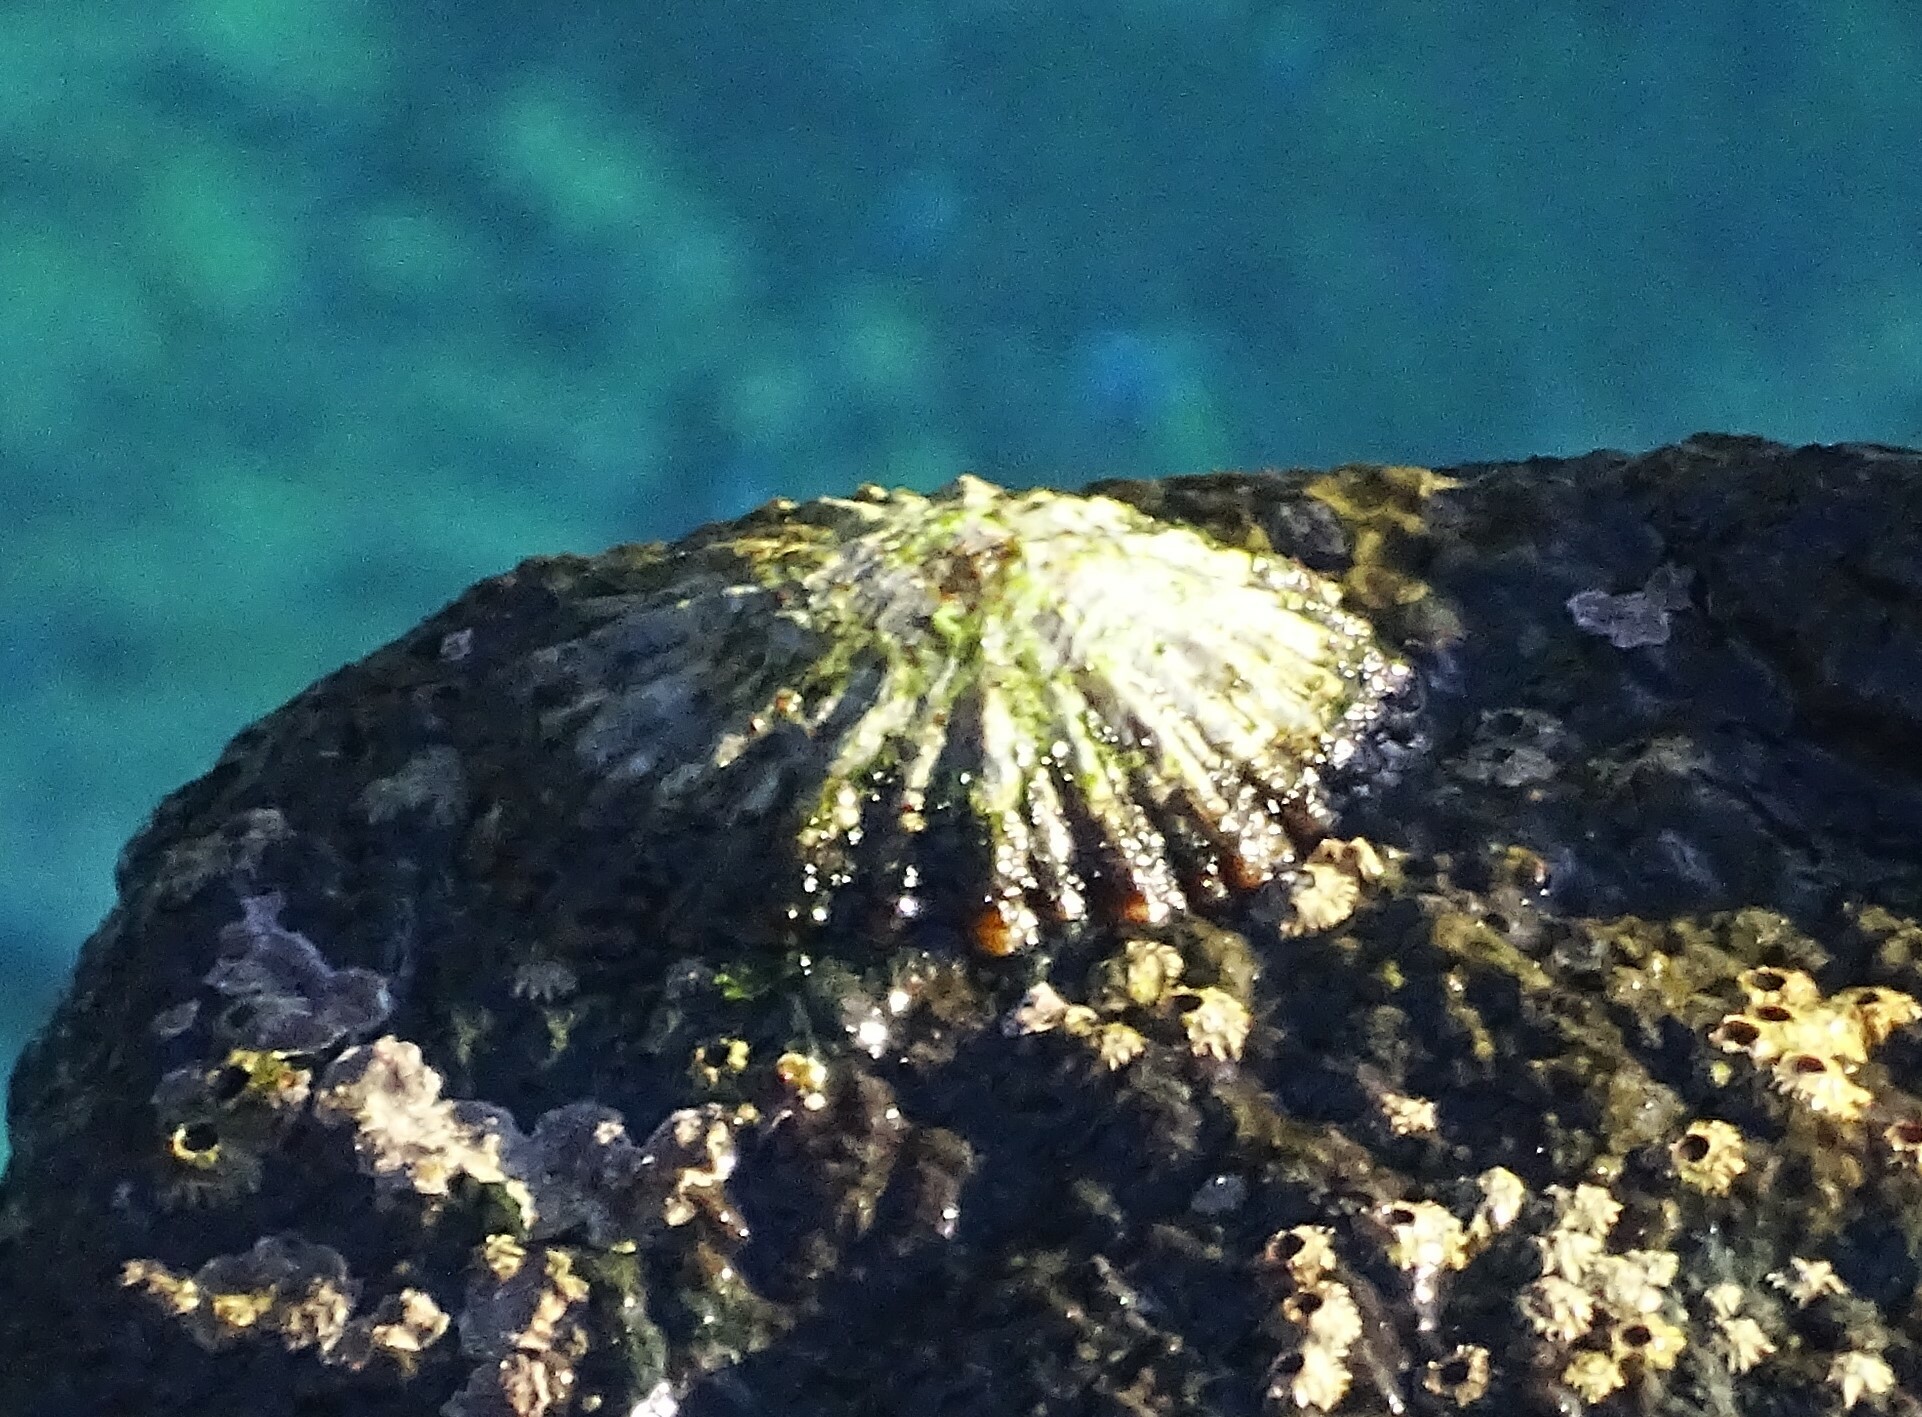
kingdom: Animalia
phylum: Mollusca
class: Gastropoda
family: Patellidae
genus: Patella
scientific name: Patella ordinaria
